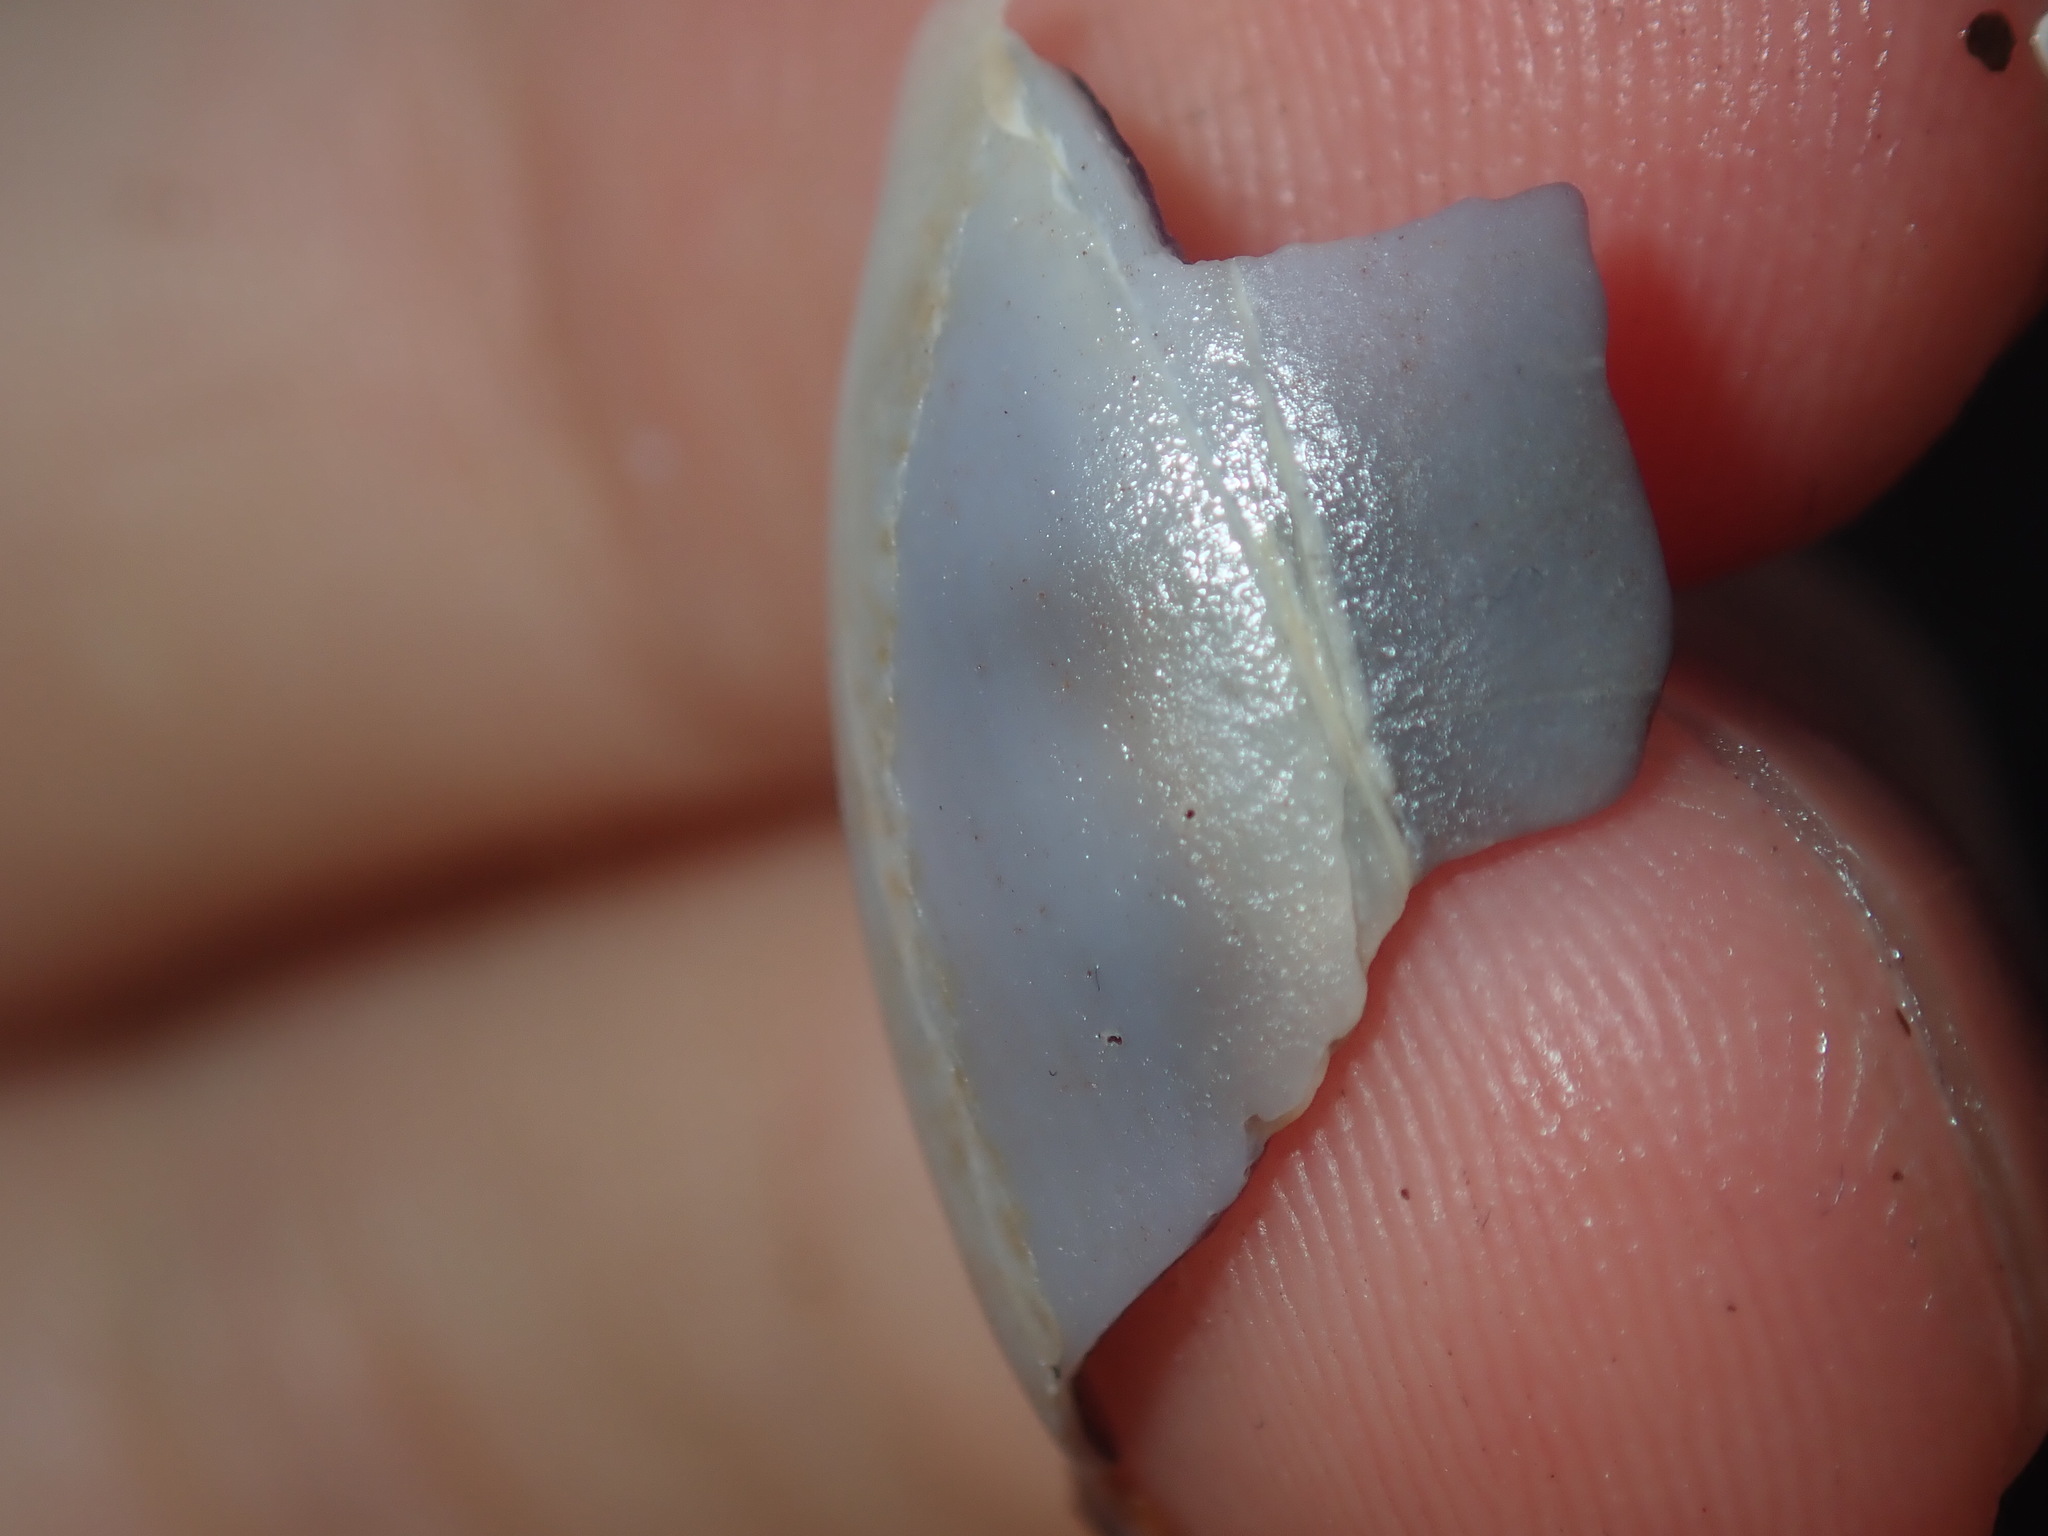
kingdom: Animalia
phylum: Mollusca
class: Gastropoda
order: Littorinimorpha
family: Cypraeidae
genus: Erronea
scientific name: Erronea errones
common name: Mistaken cowrie
